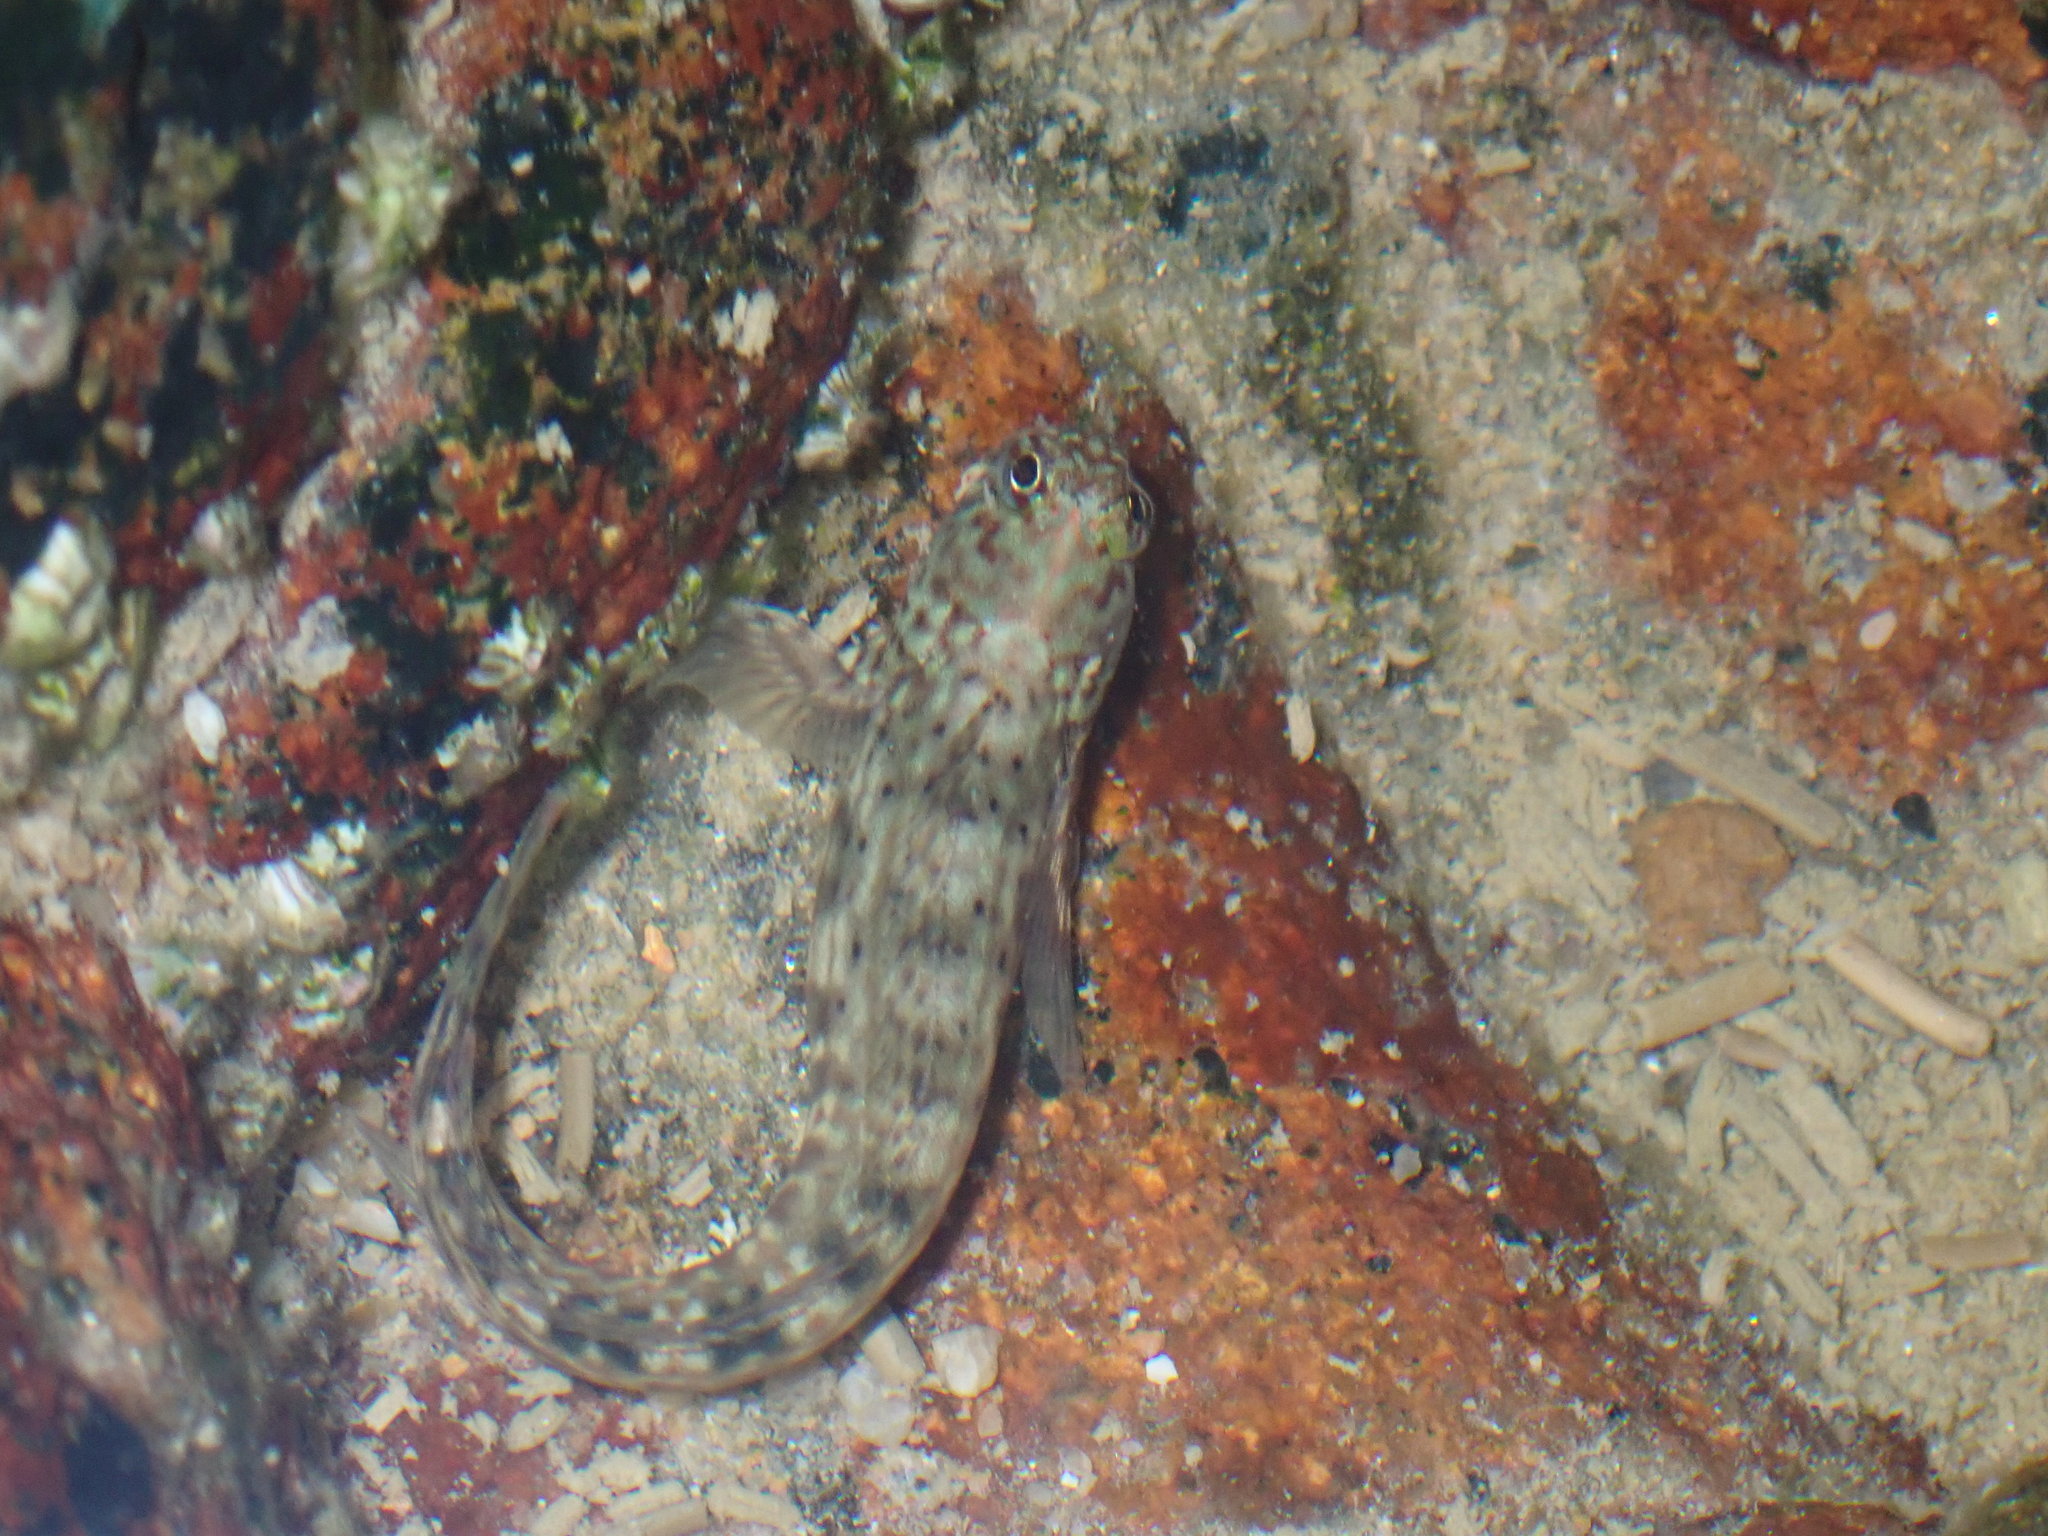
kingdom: Animalia
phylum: Chordata
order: Perciformes
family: Blenniidae
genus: Istiblennius
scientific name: Istiblennius dussumieri
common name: Dussumier's rockskipper
